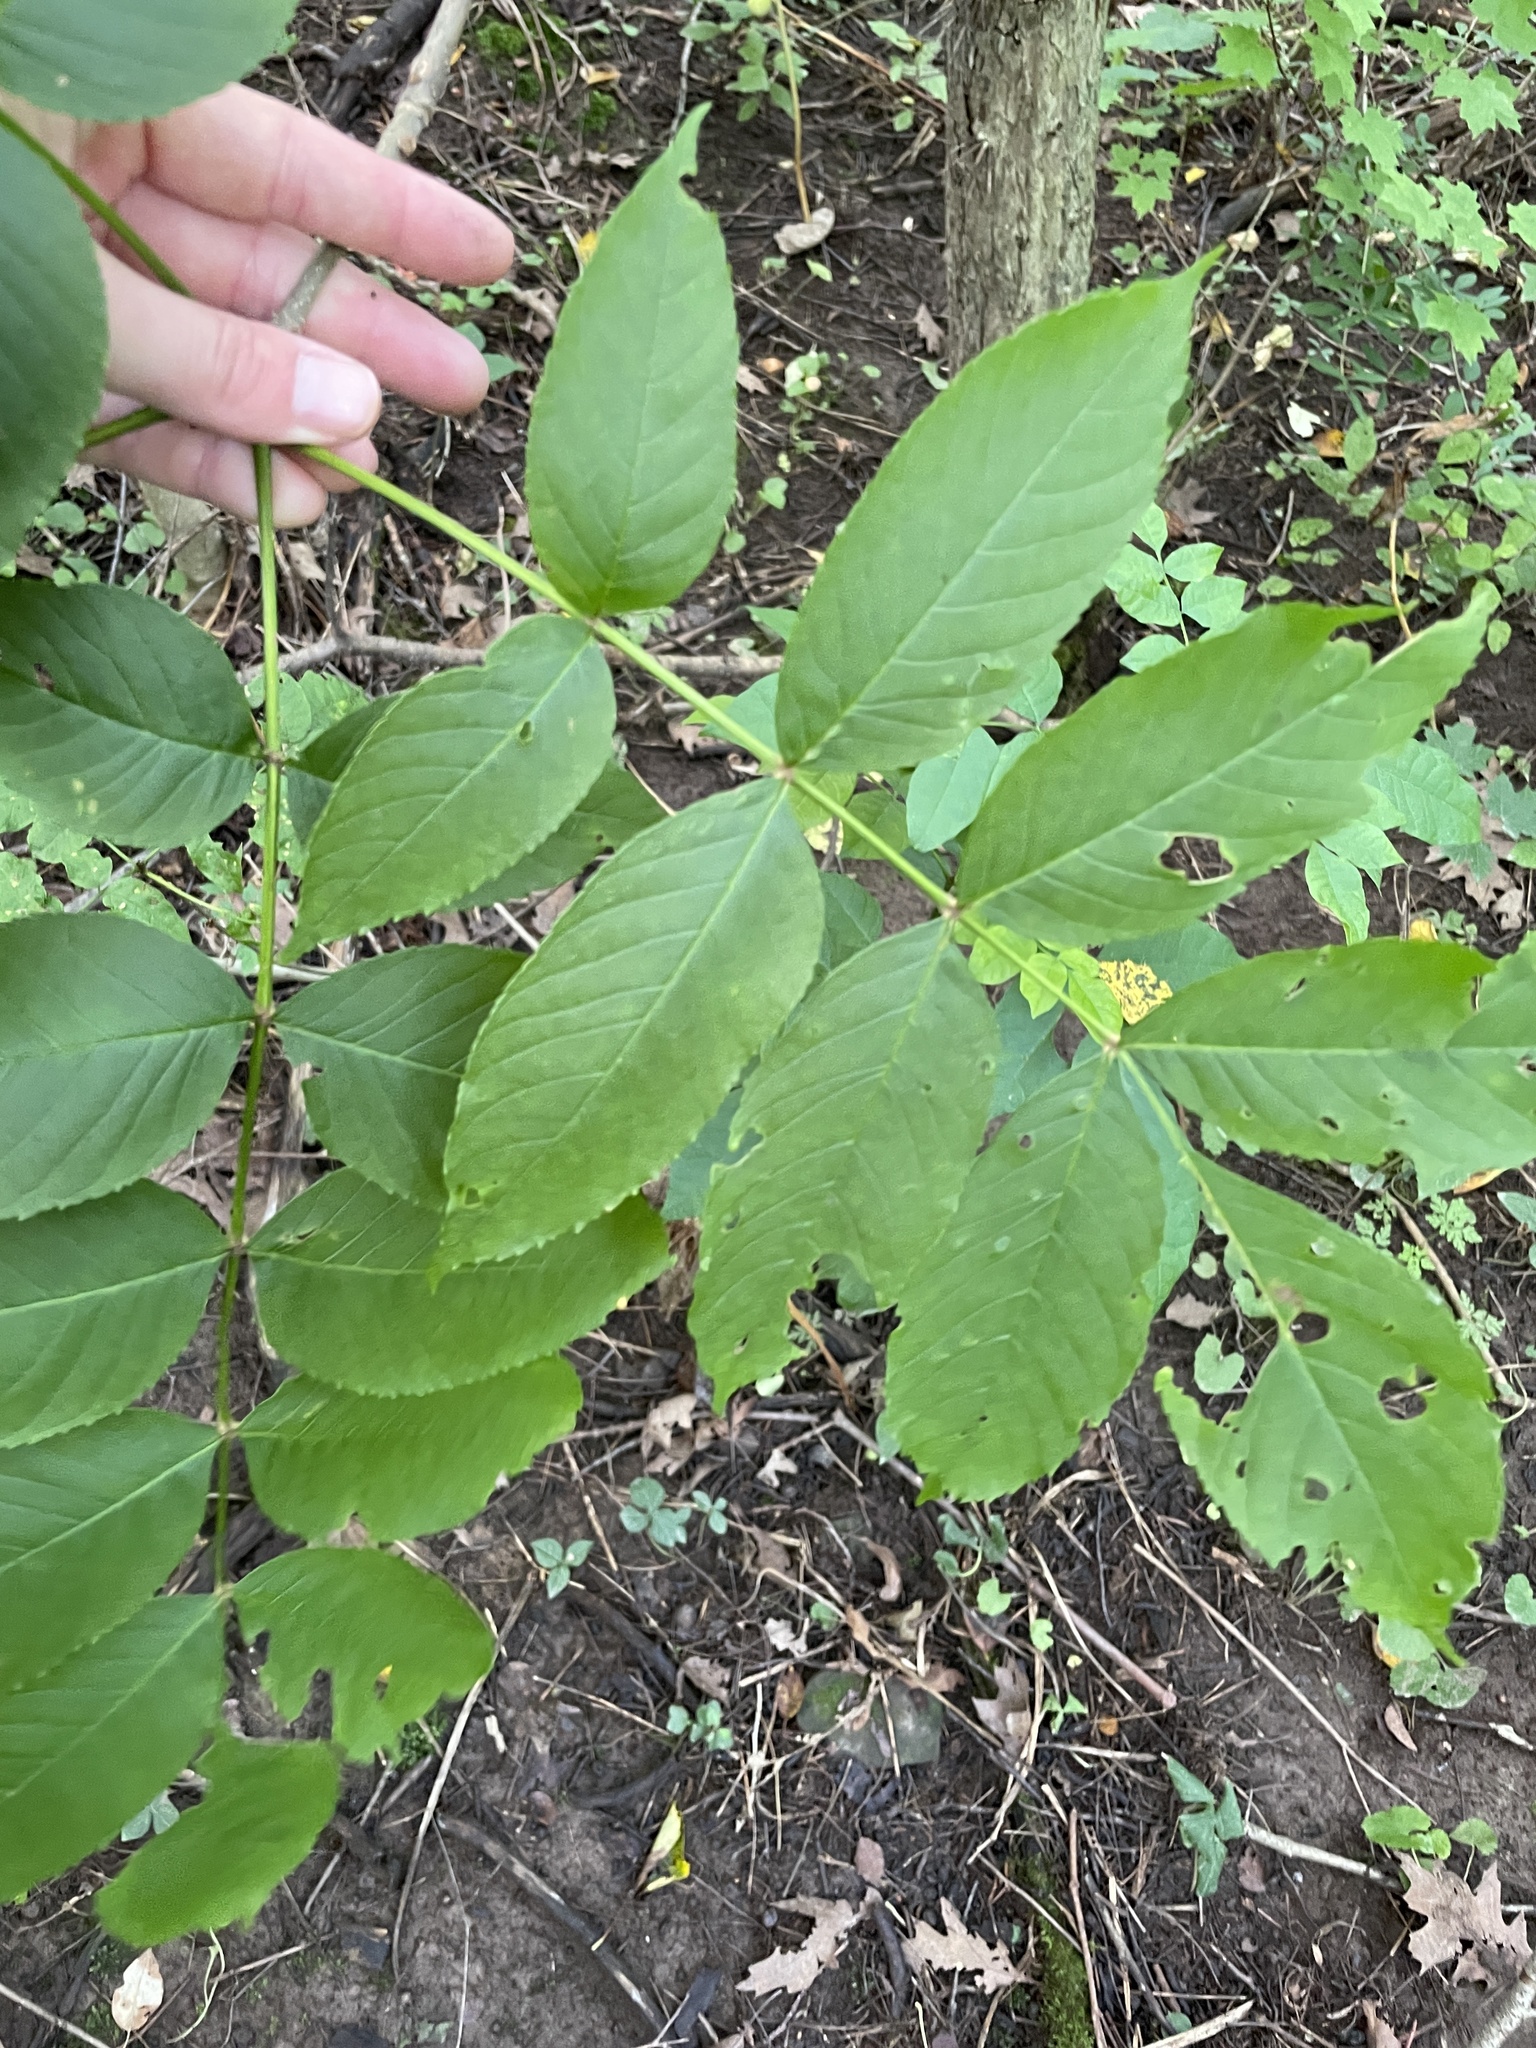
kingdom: Plantae
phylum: Tracheophyta
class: Magnoliopsida
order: Lamiales
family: Oleaceae
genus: Fraxinus
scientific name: Fraxinus nigra
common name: Black ash
